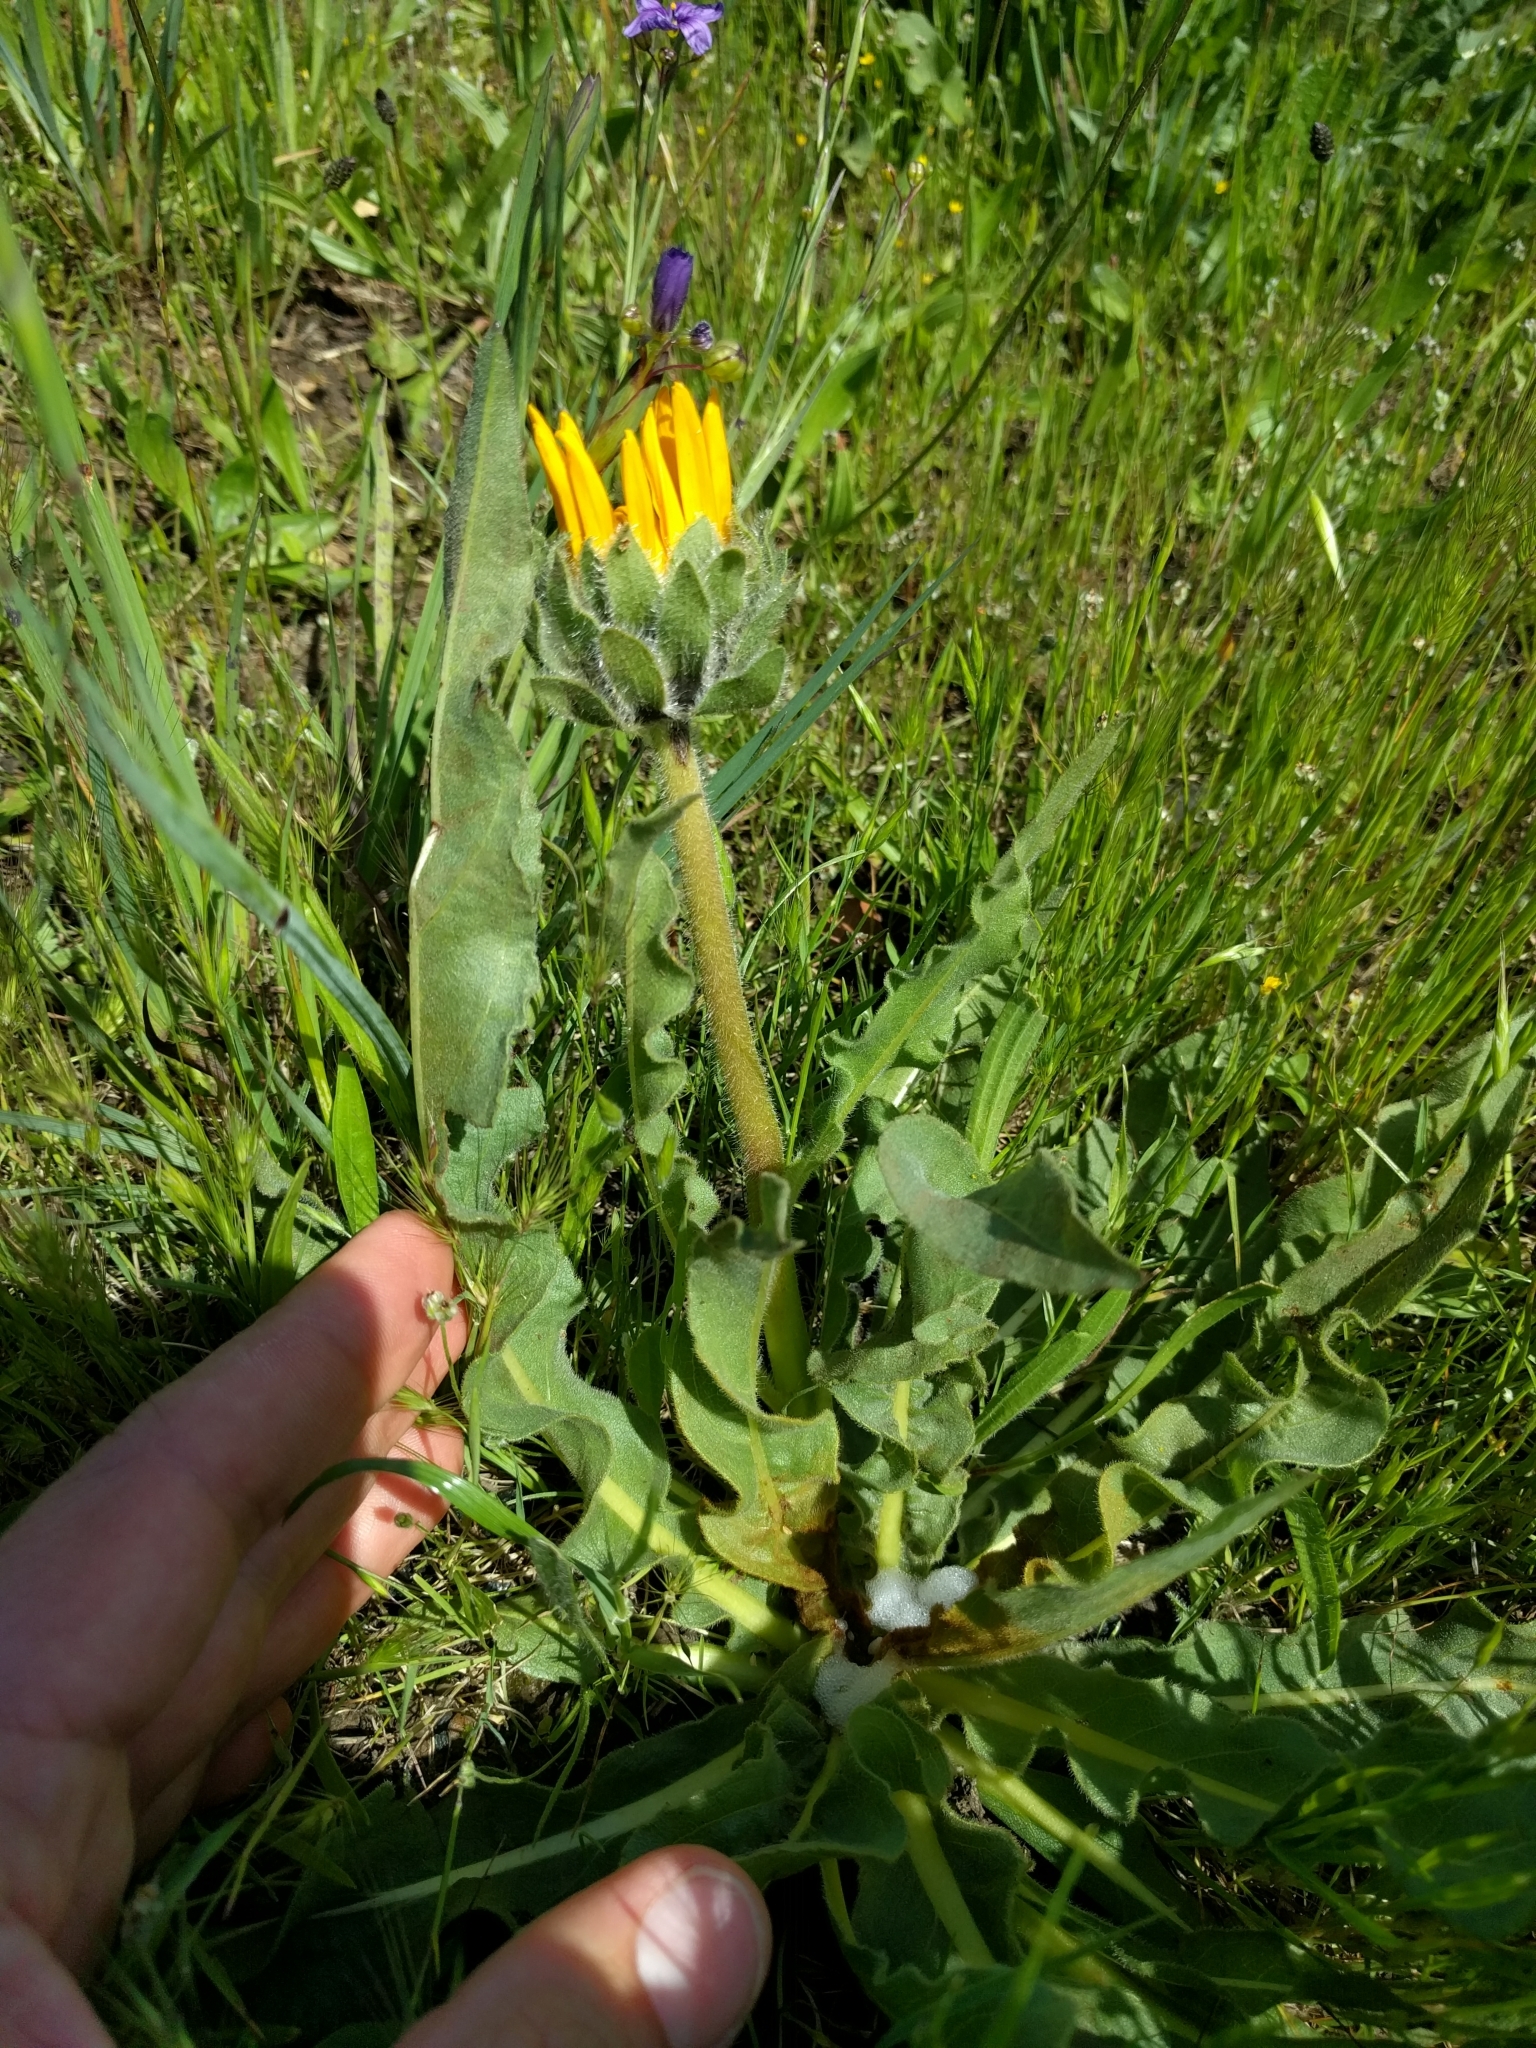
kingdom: Plantae
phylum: Tracheophyta
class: Magnoliopsida
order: Asterales
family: Asteraceae
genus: Wyethia
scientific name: Wyethia angustifolia
